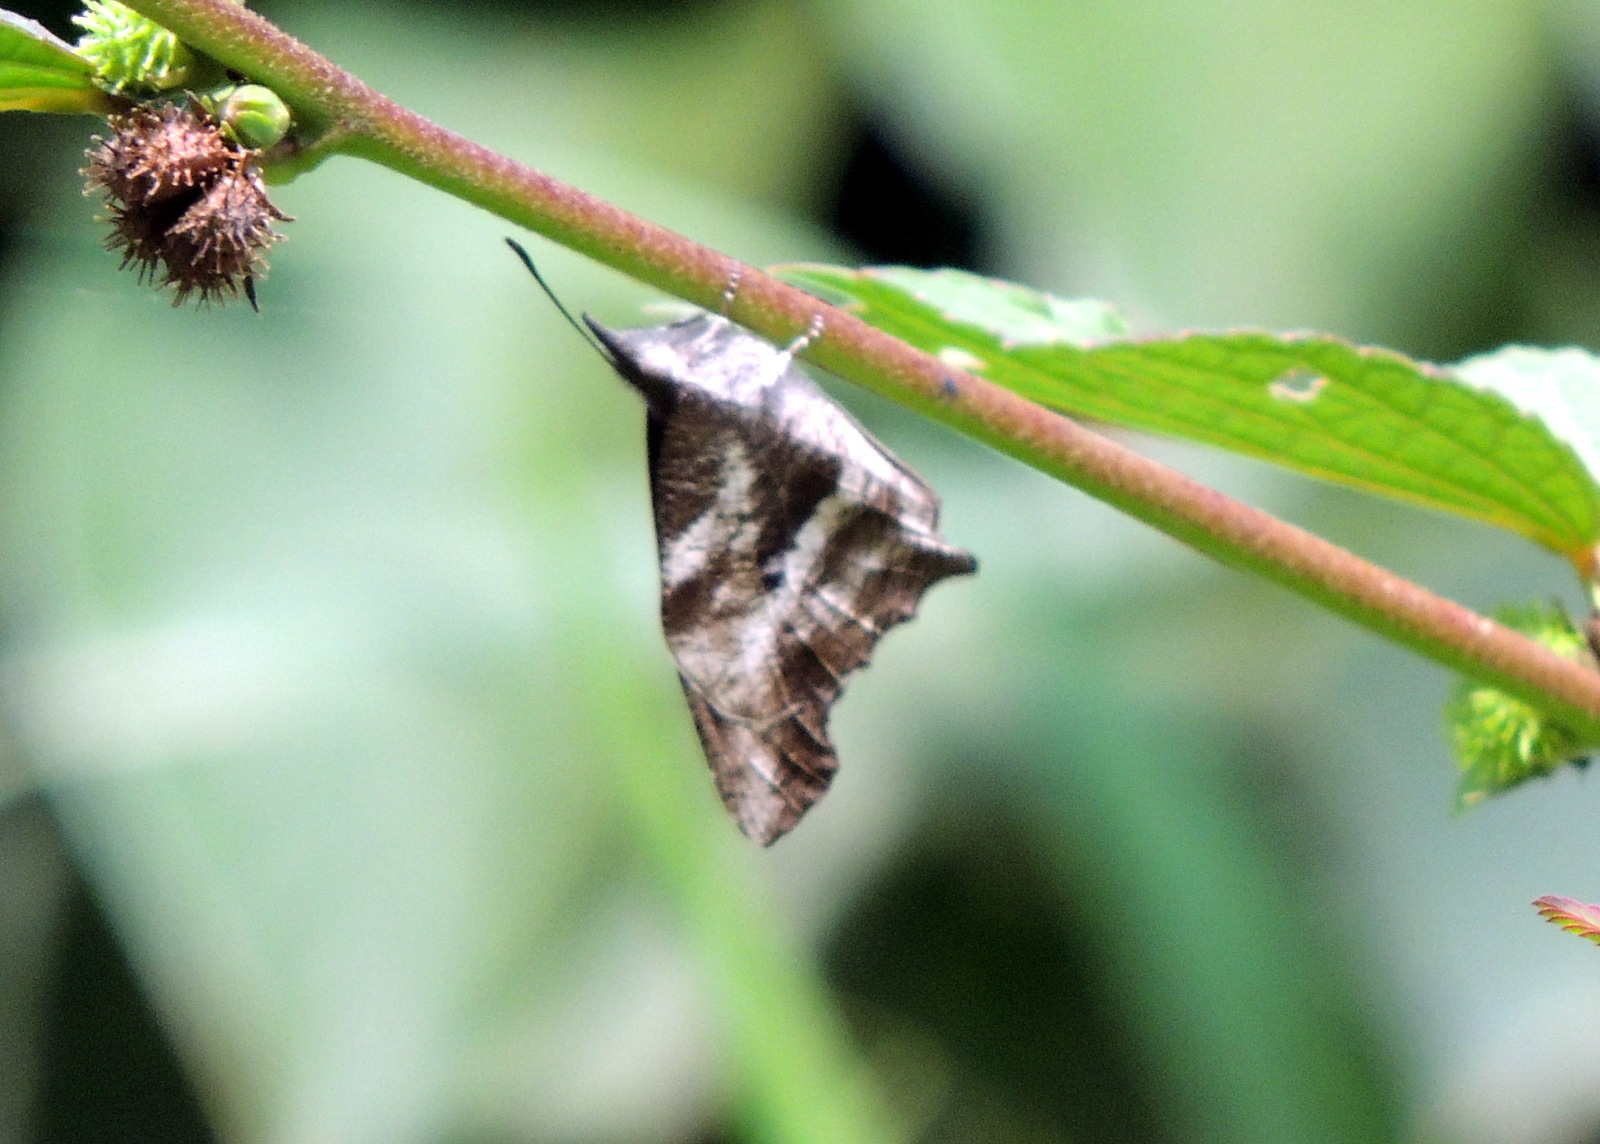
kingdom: Animalia
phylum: Arthropoda
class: Insecta
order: Lepidoptera
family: Nymphalidae
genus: Libythea
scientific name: Libythea labdaca
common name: Northern african snout
